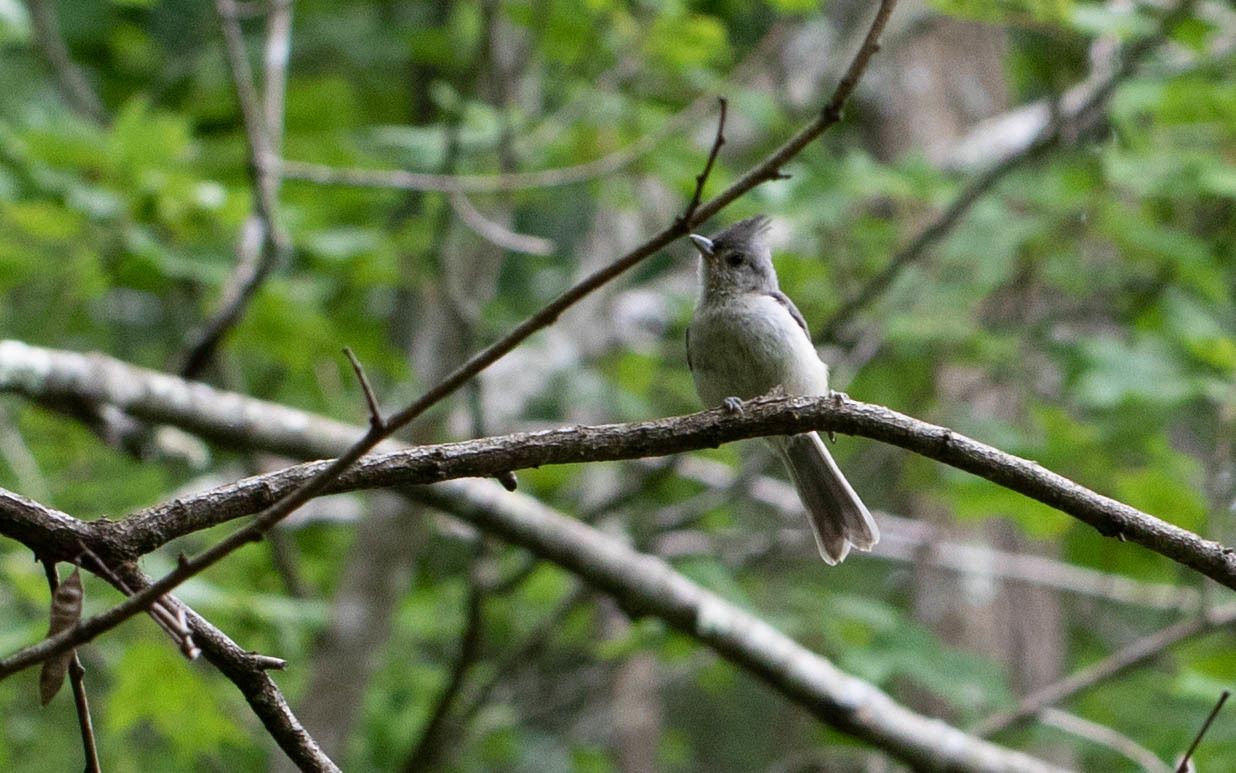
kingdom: Animalia
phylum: Chordata
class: Aves
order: Passeriformes
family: Paridae
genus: Baeolophus
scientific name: Baeolophus bicolor
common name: Tufted titmouse
